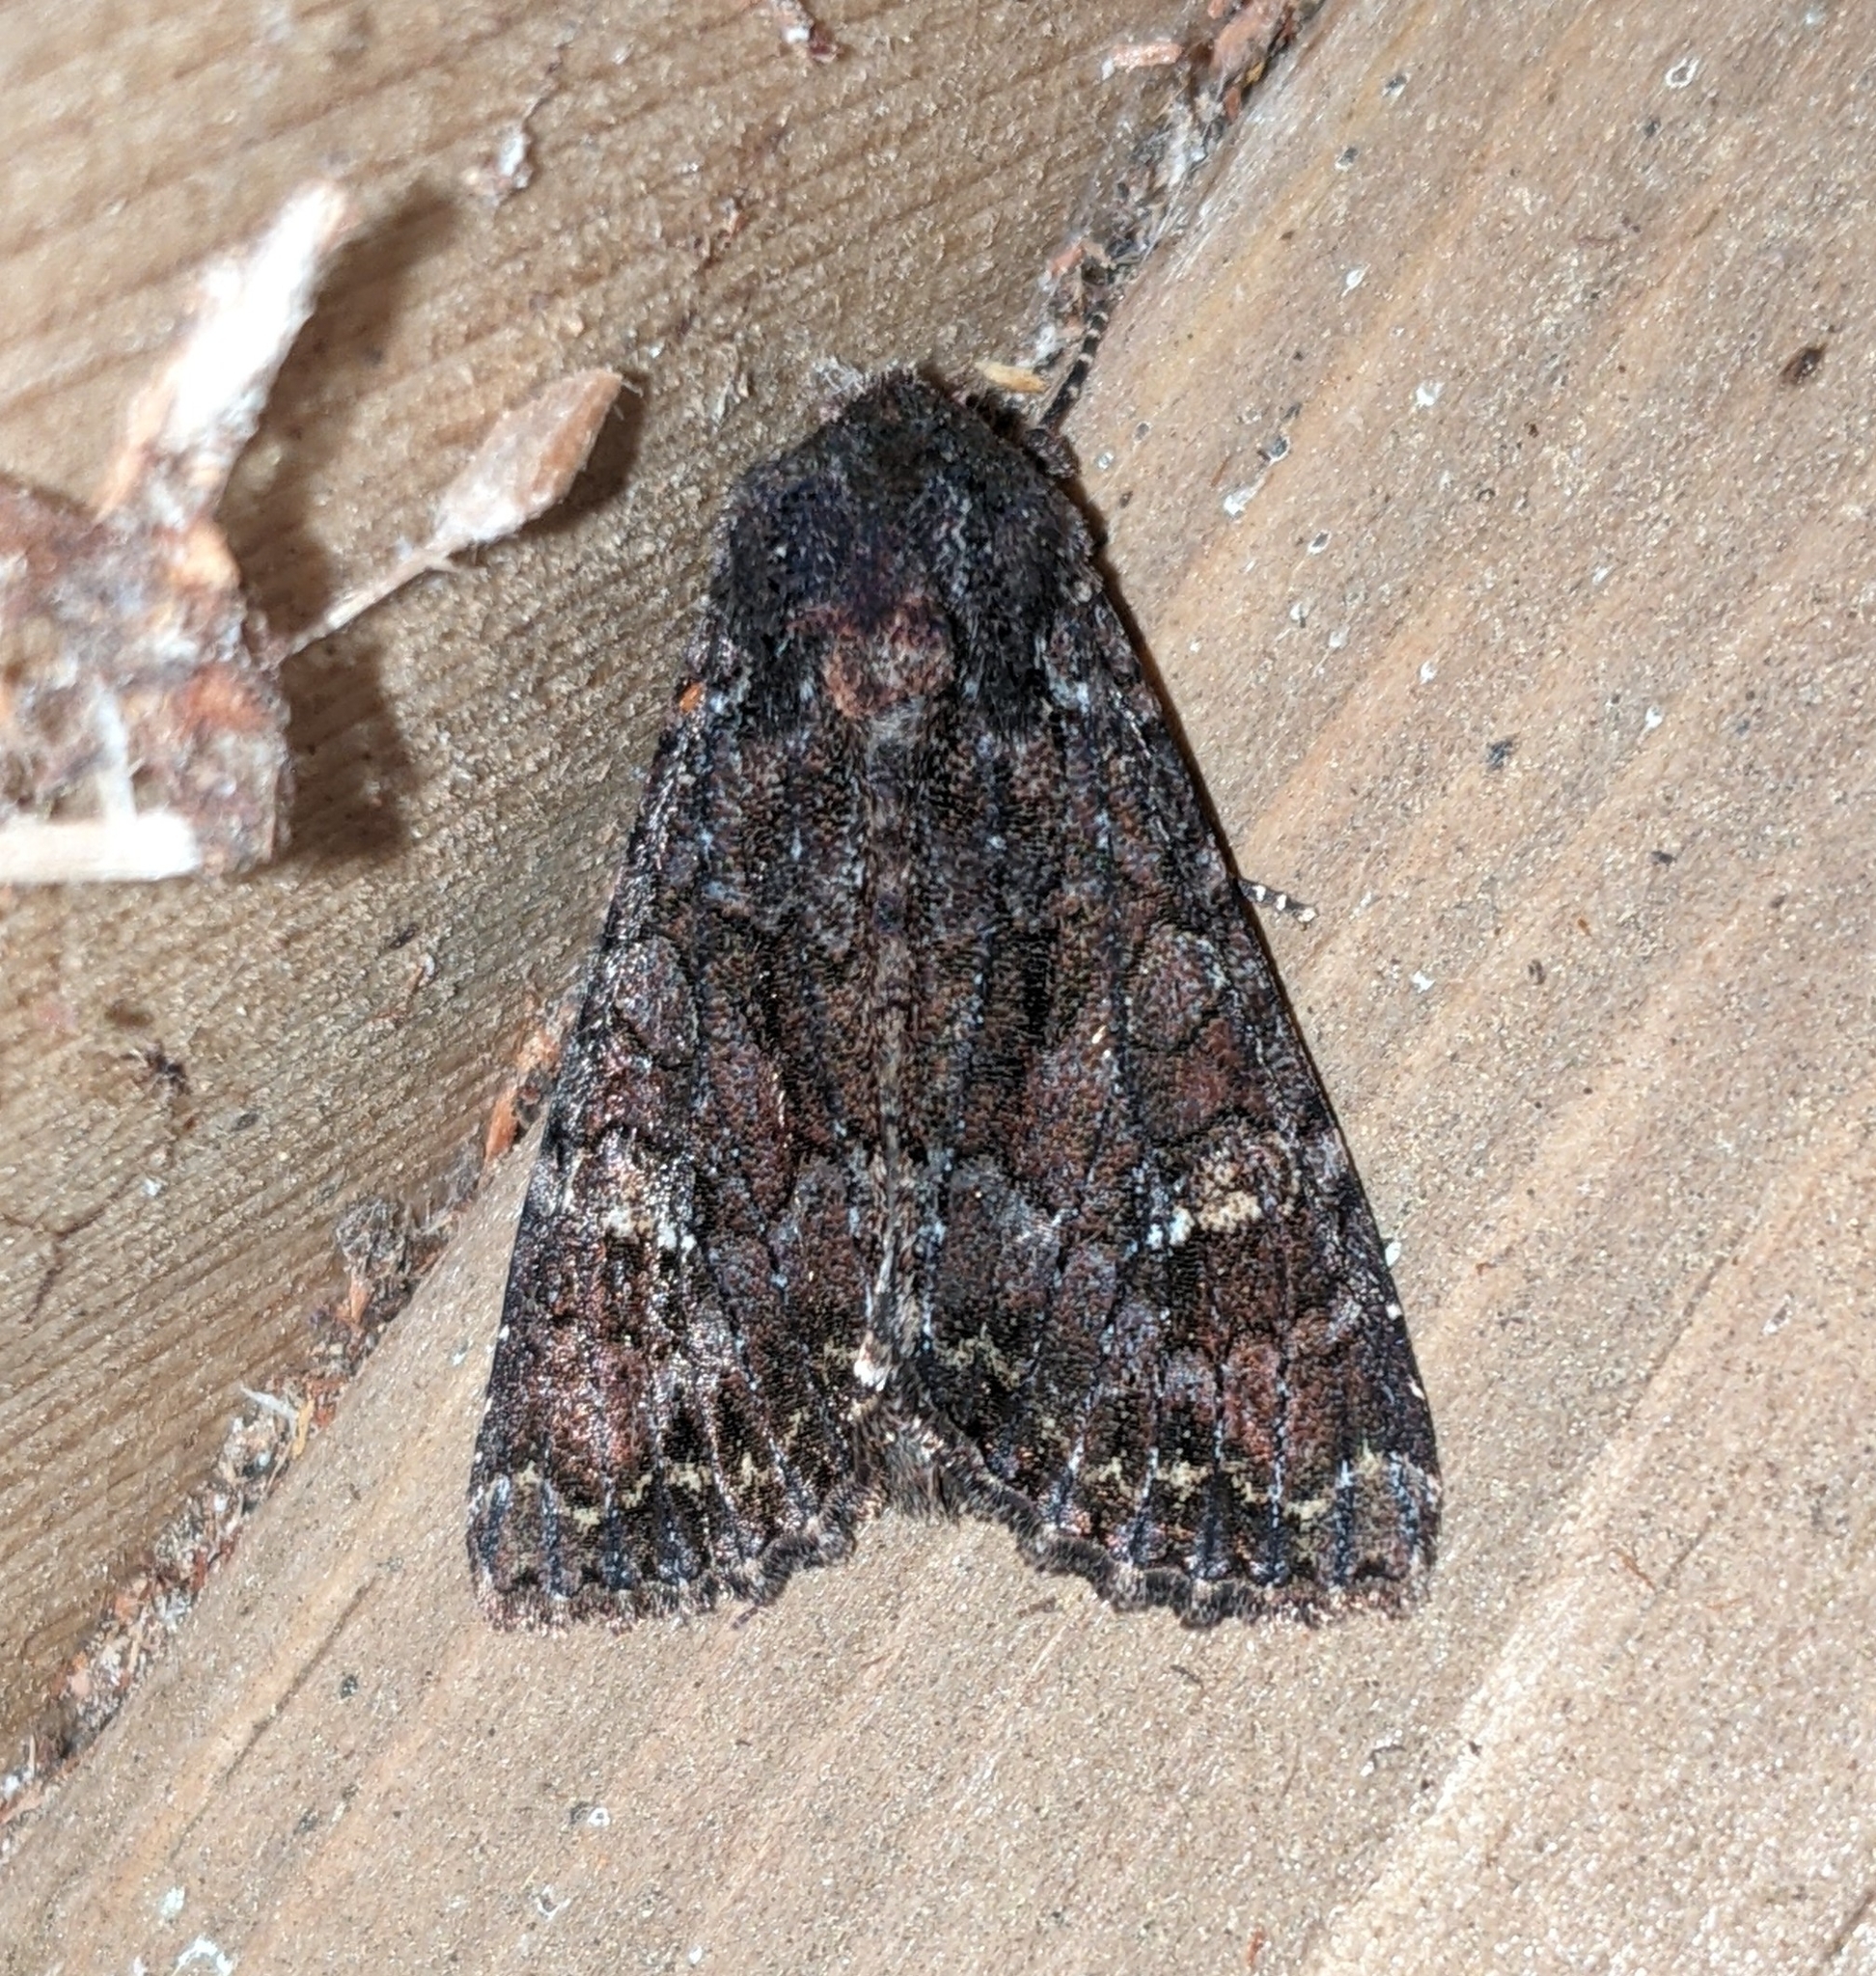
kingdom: Animalia
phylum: Arthropoda
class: Insecta
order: Lepidoptera
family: Noctuidae
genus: Apamea
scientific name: Apamea amputatrix
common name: Yellow-headed cutworm moth
